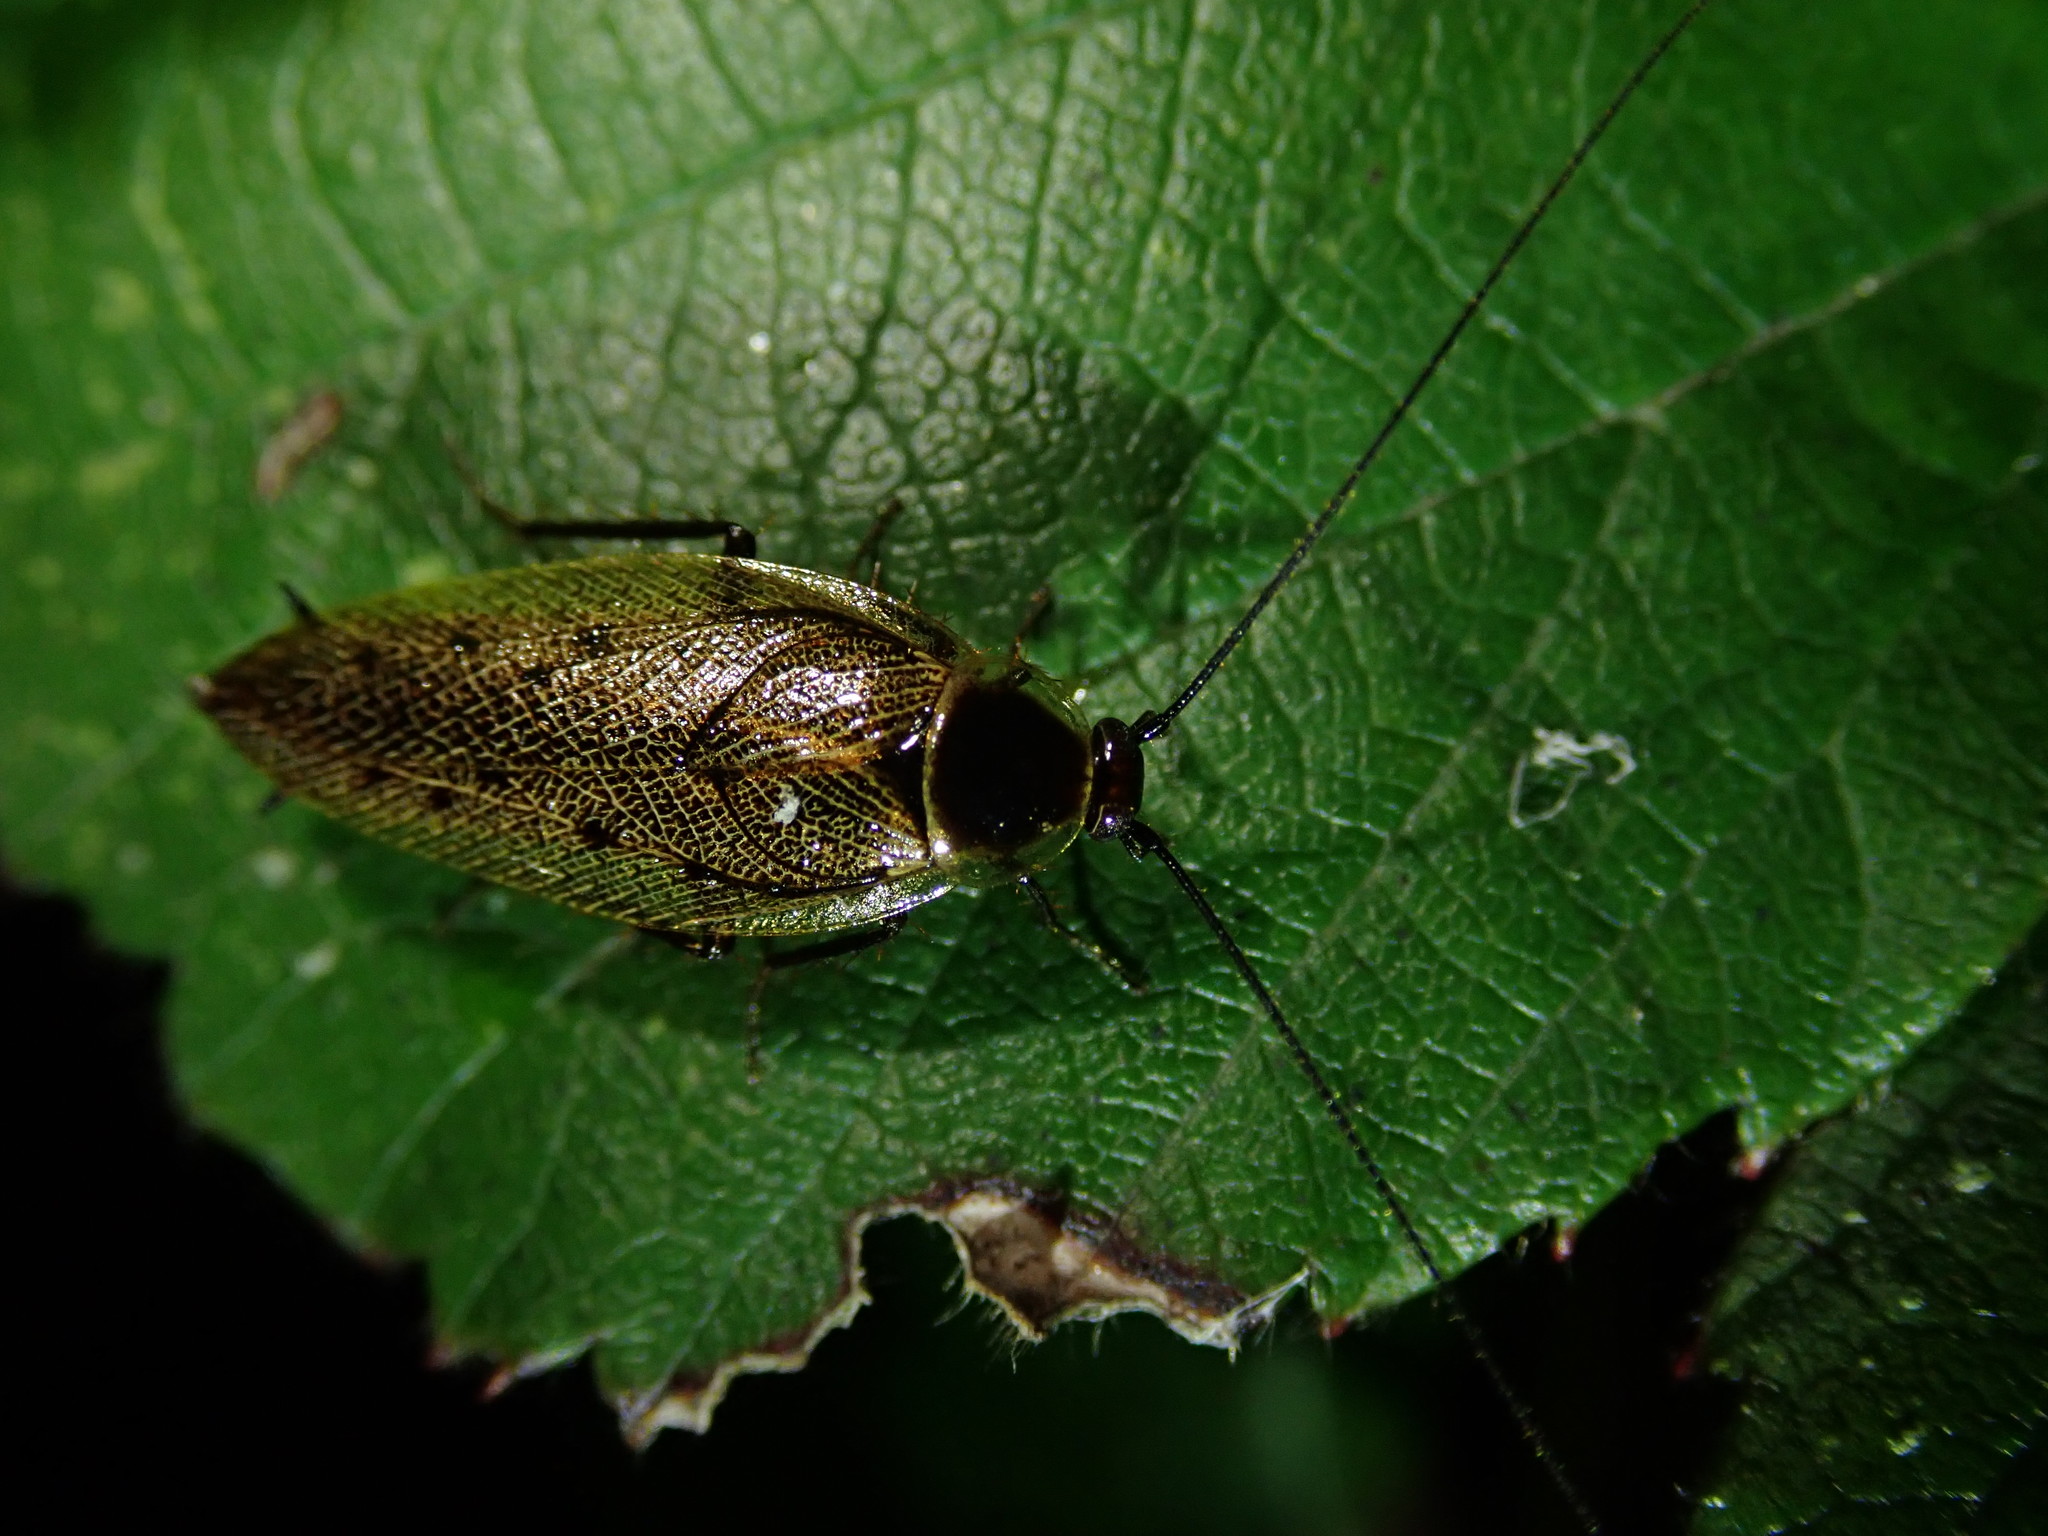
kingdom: Animalia
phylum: Arthropoda
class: Insecta
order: Blattodea
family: Ectobiidae
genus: Ectobius
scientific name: Ectobius lapponicus
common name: Dusky cockroach
